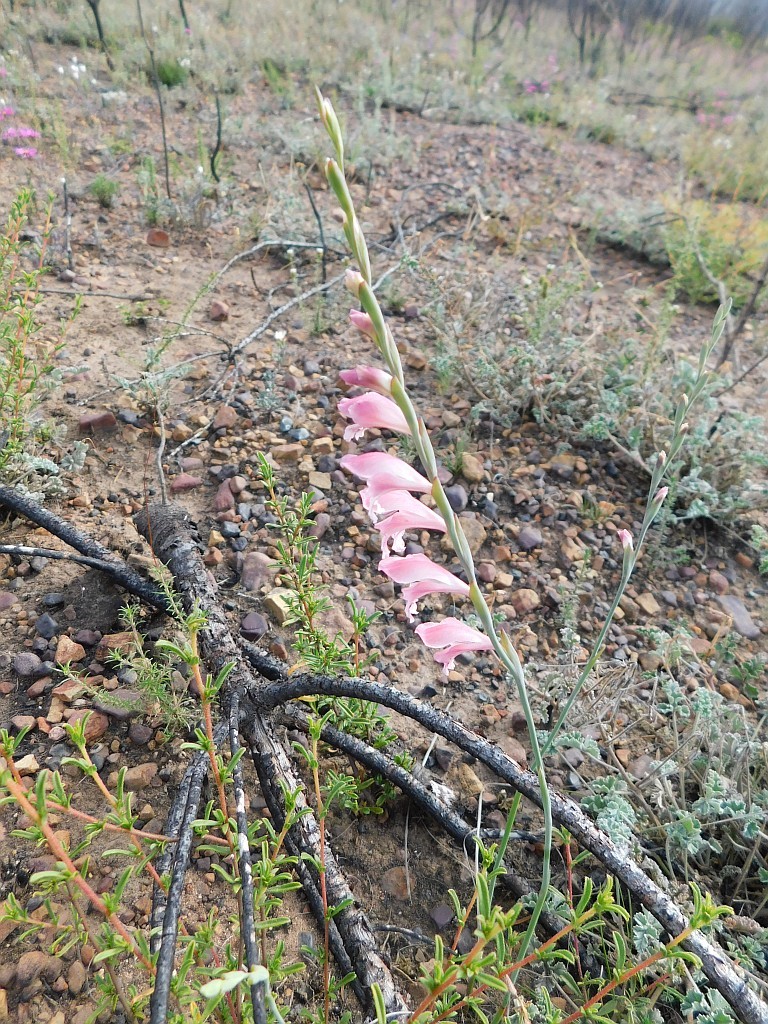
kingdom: Plantae
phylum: Tracheophyta
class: Liliopsida
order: Asparagales
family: Iridaceae
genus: Gladiolus
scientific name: Gladiolus brevifolius
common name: March pypie
